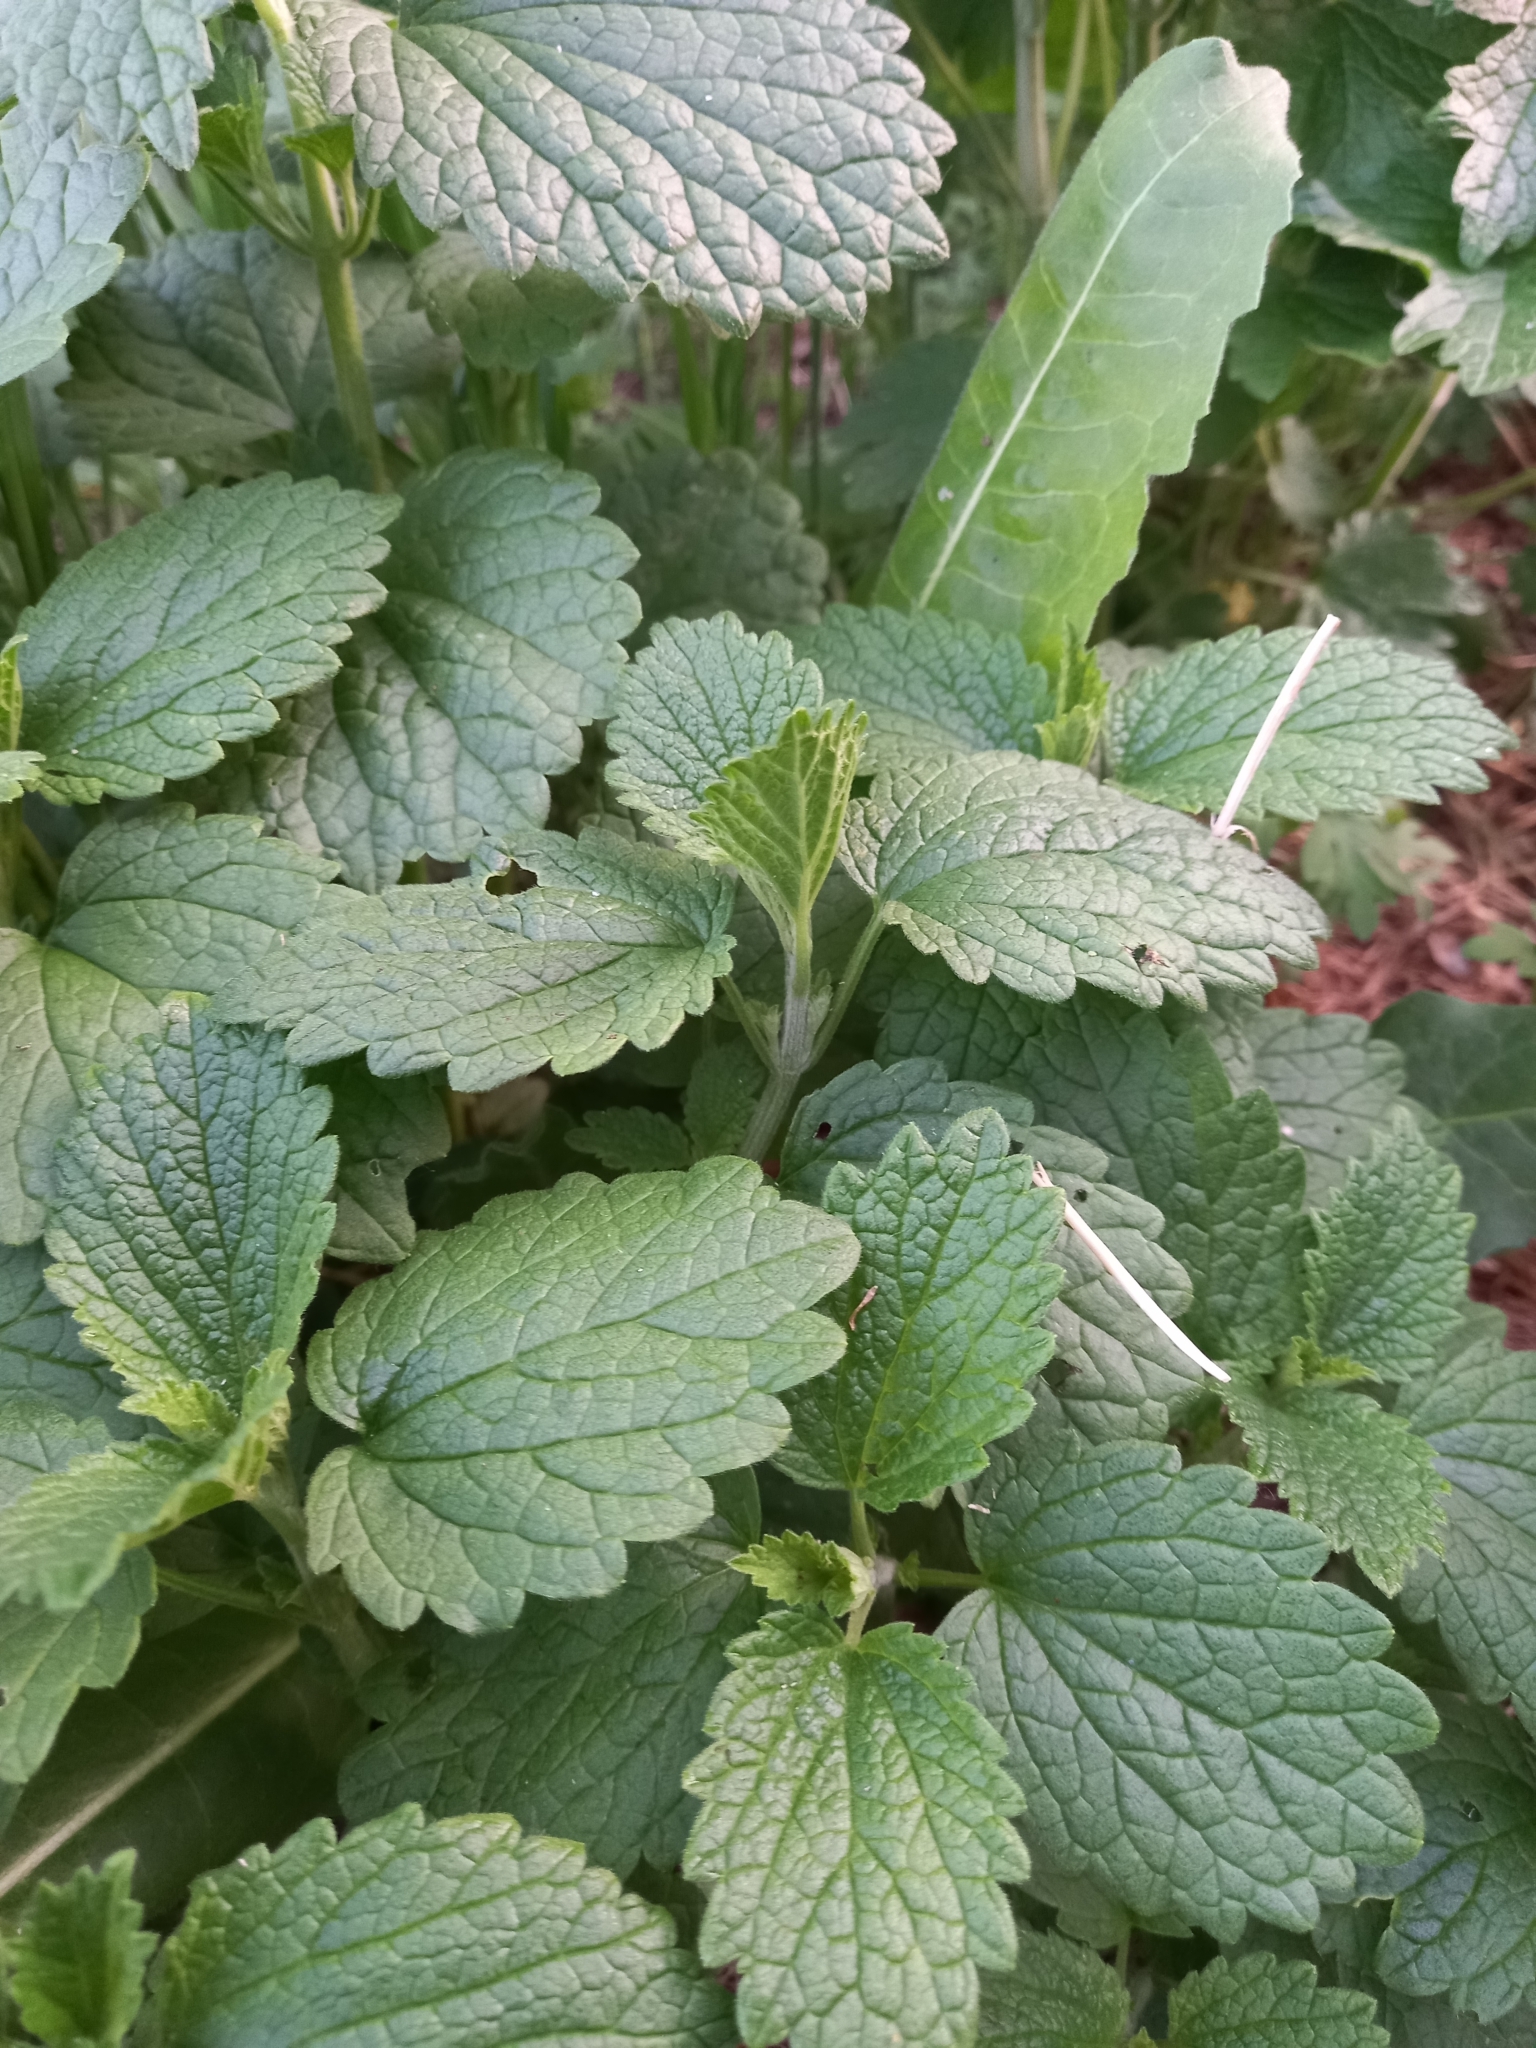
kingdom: Plantae
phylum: Tracheophyta
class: Magnoliopsida
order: Lamiales
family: Lamiaceae
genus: Ballota
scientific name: Ballota nigra
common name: Black horehound
